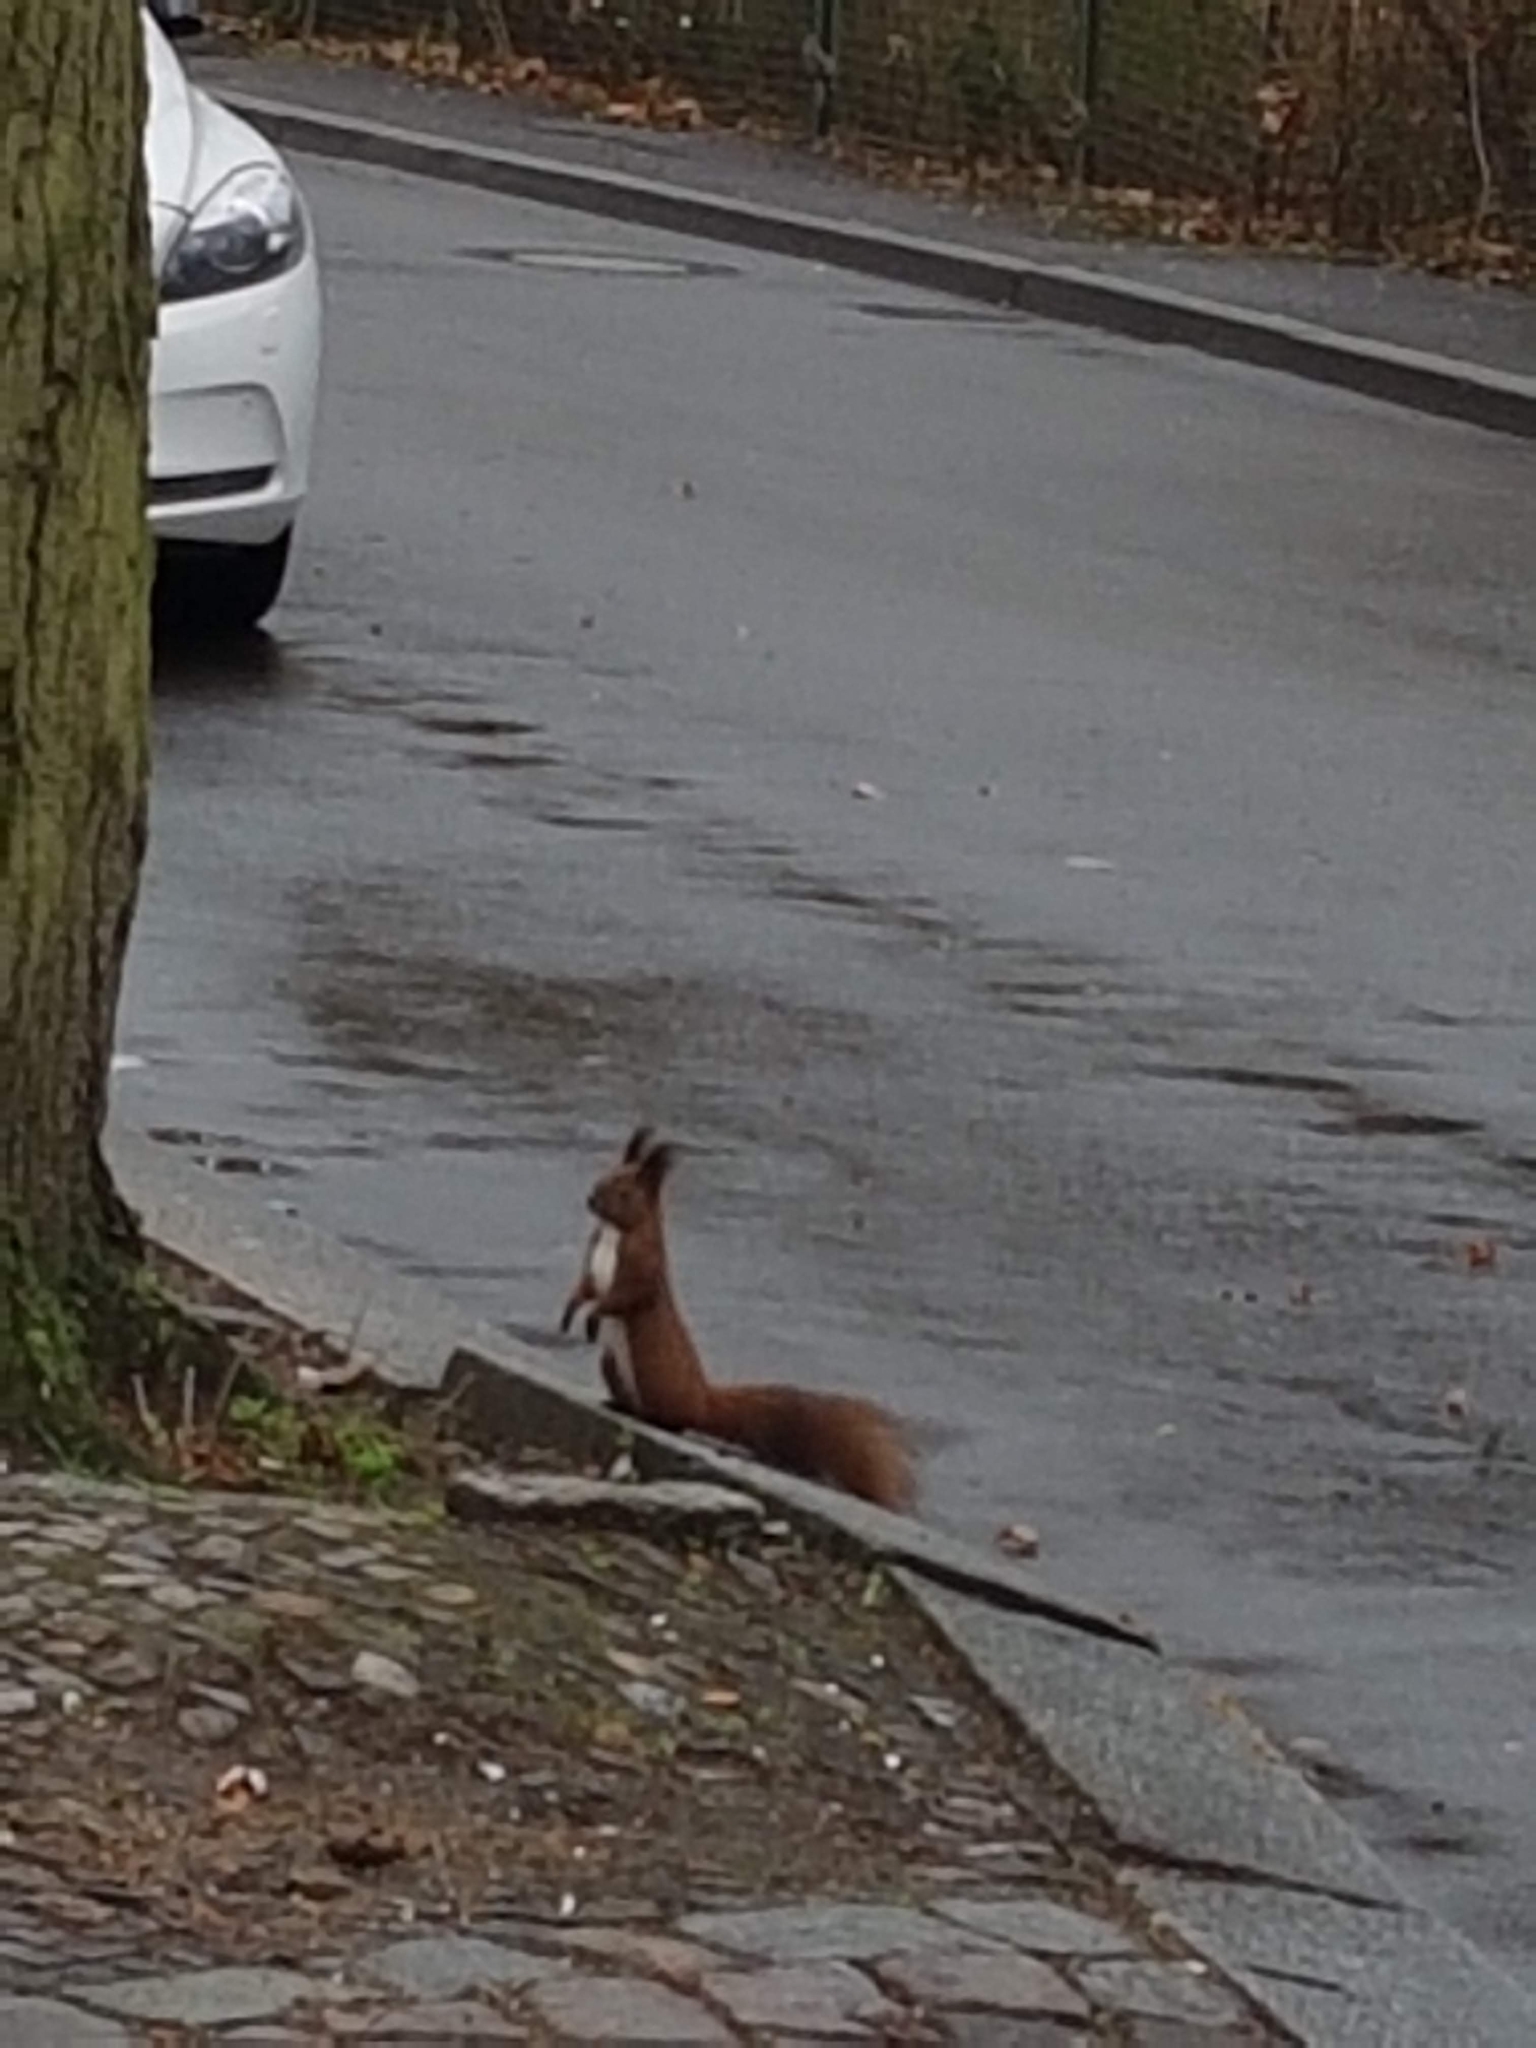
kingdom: Animalia
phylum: Chordata
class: Mammalia
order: Rodentia
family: Sciuridae
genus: Sciurus
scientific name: Sciurus vulgaris
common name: Eurasian red squirrel
